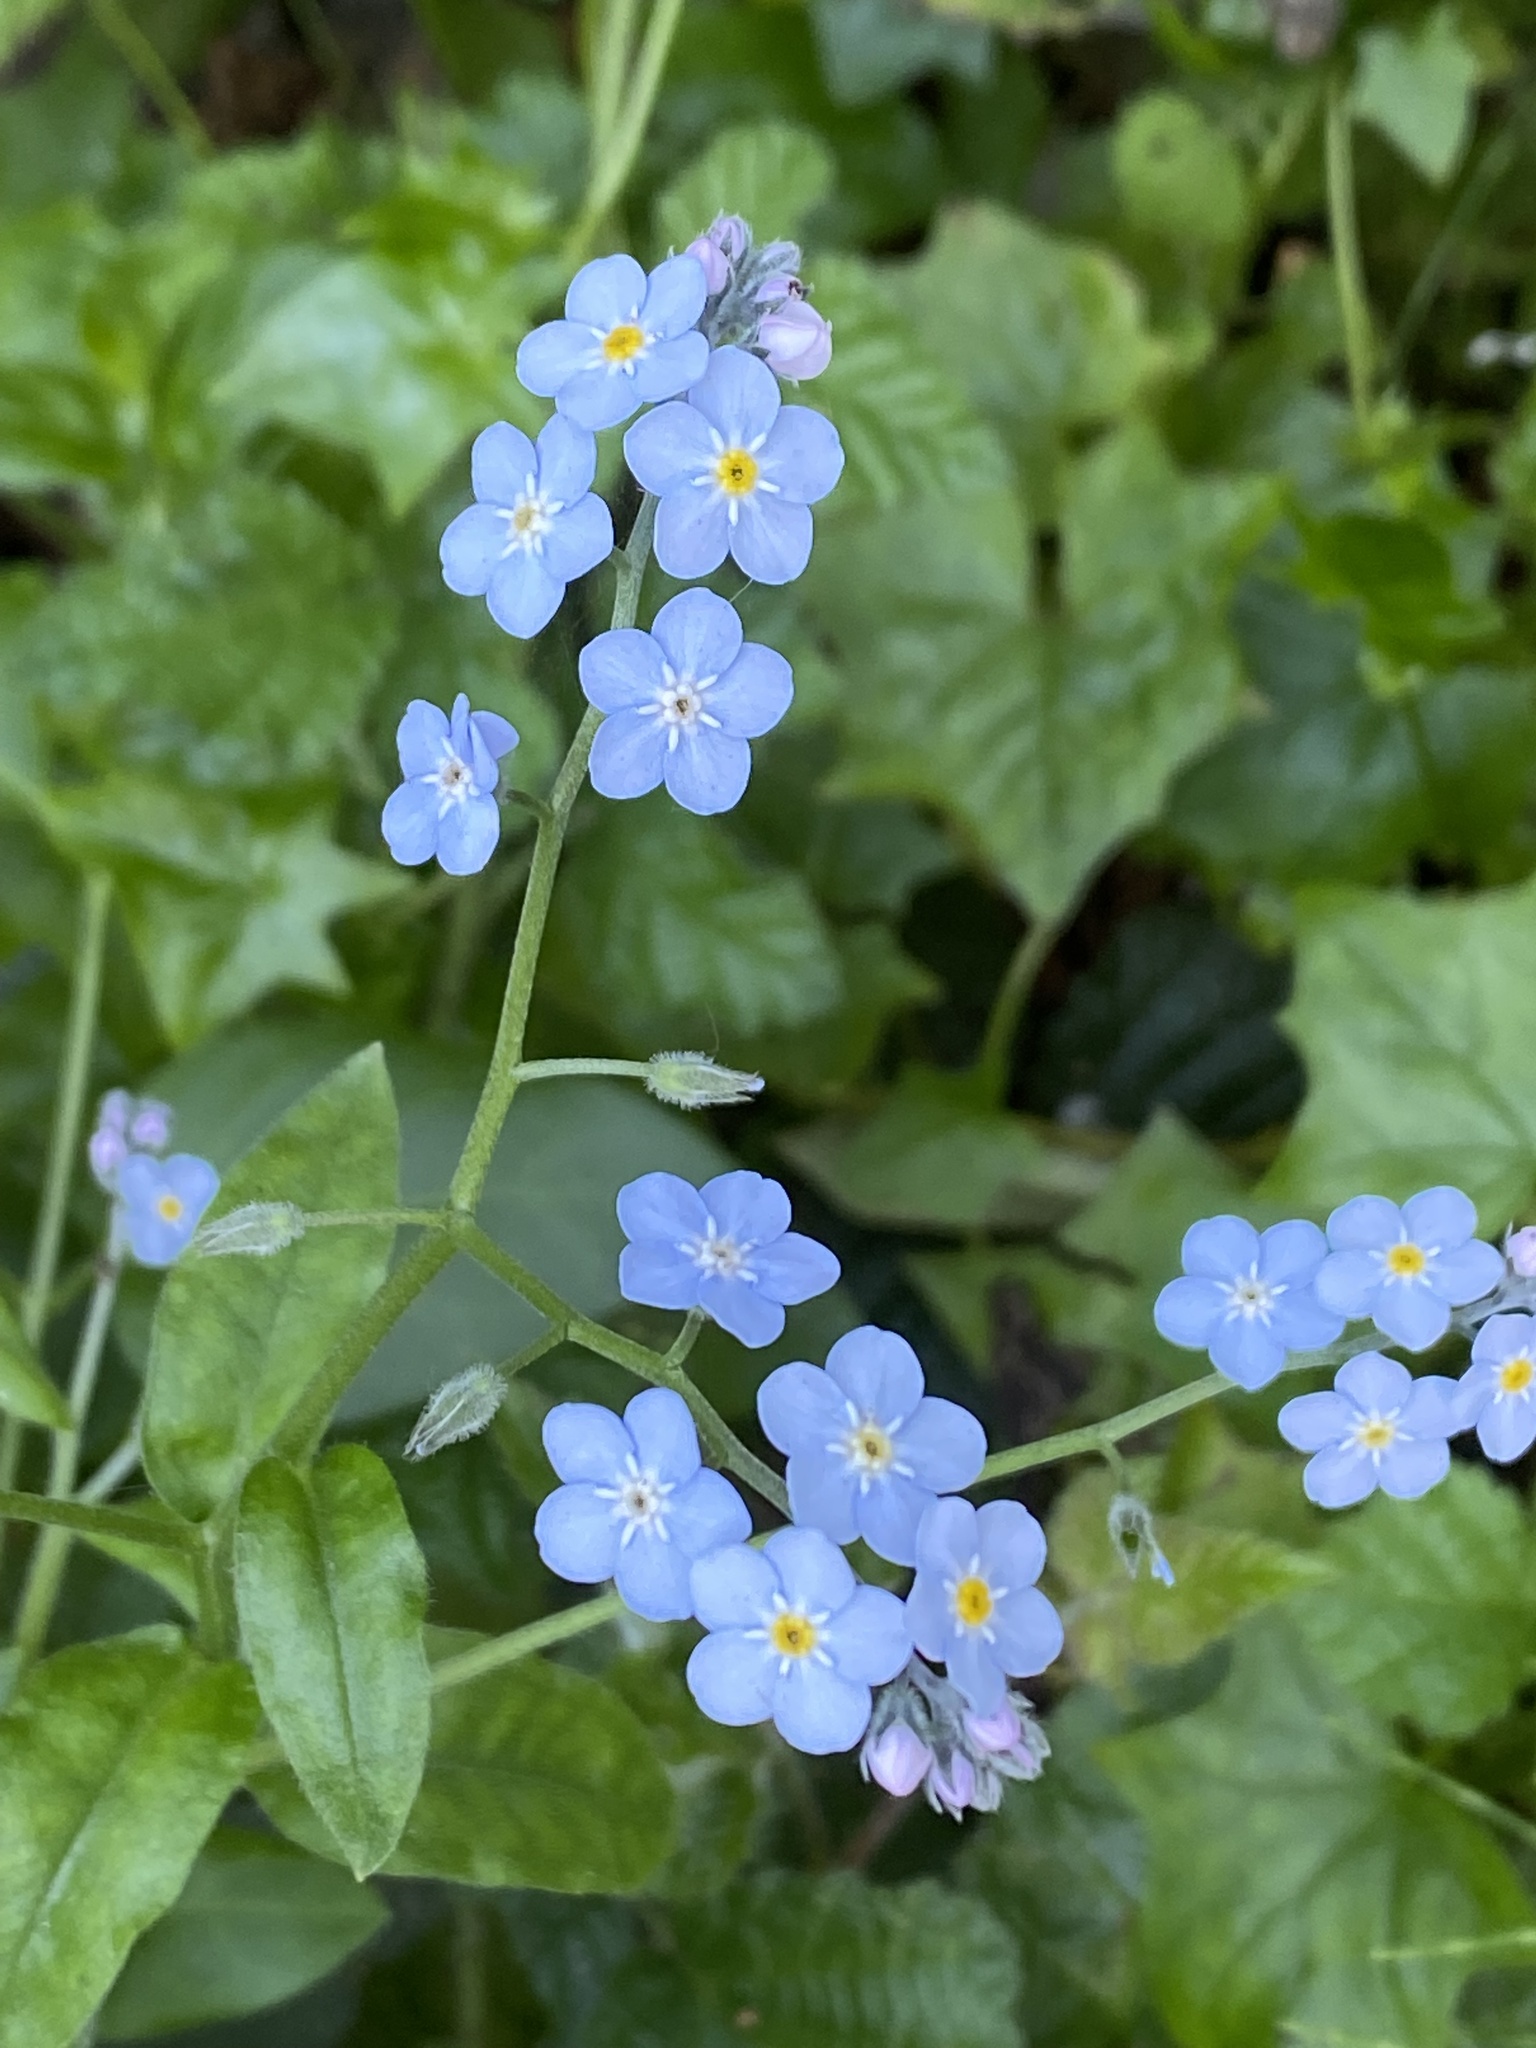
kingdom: Plantae
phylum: Tracheophyta
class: Magnoliopsida
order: Boraginales
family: Boraginaceae
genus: Myosotis
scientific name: Myosotis latifolia
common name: Broadleaf forget-me-not
